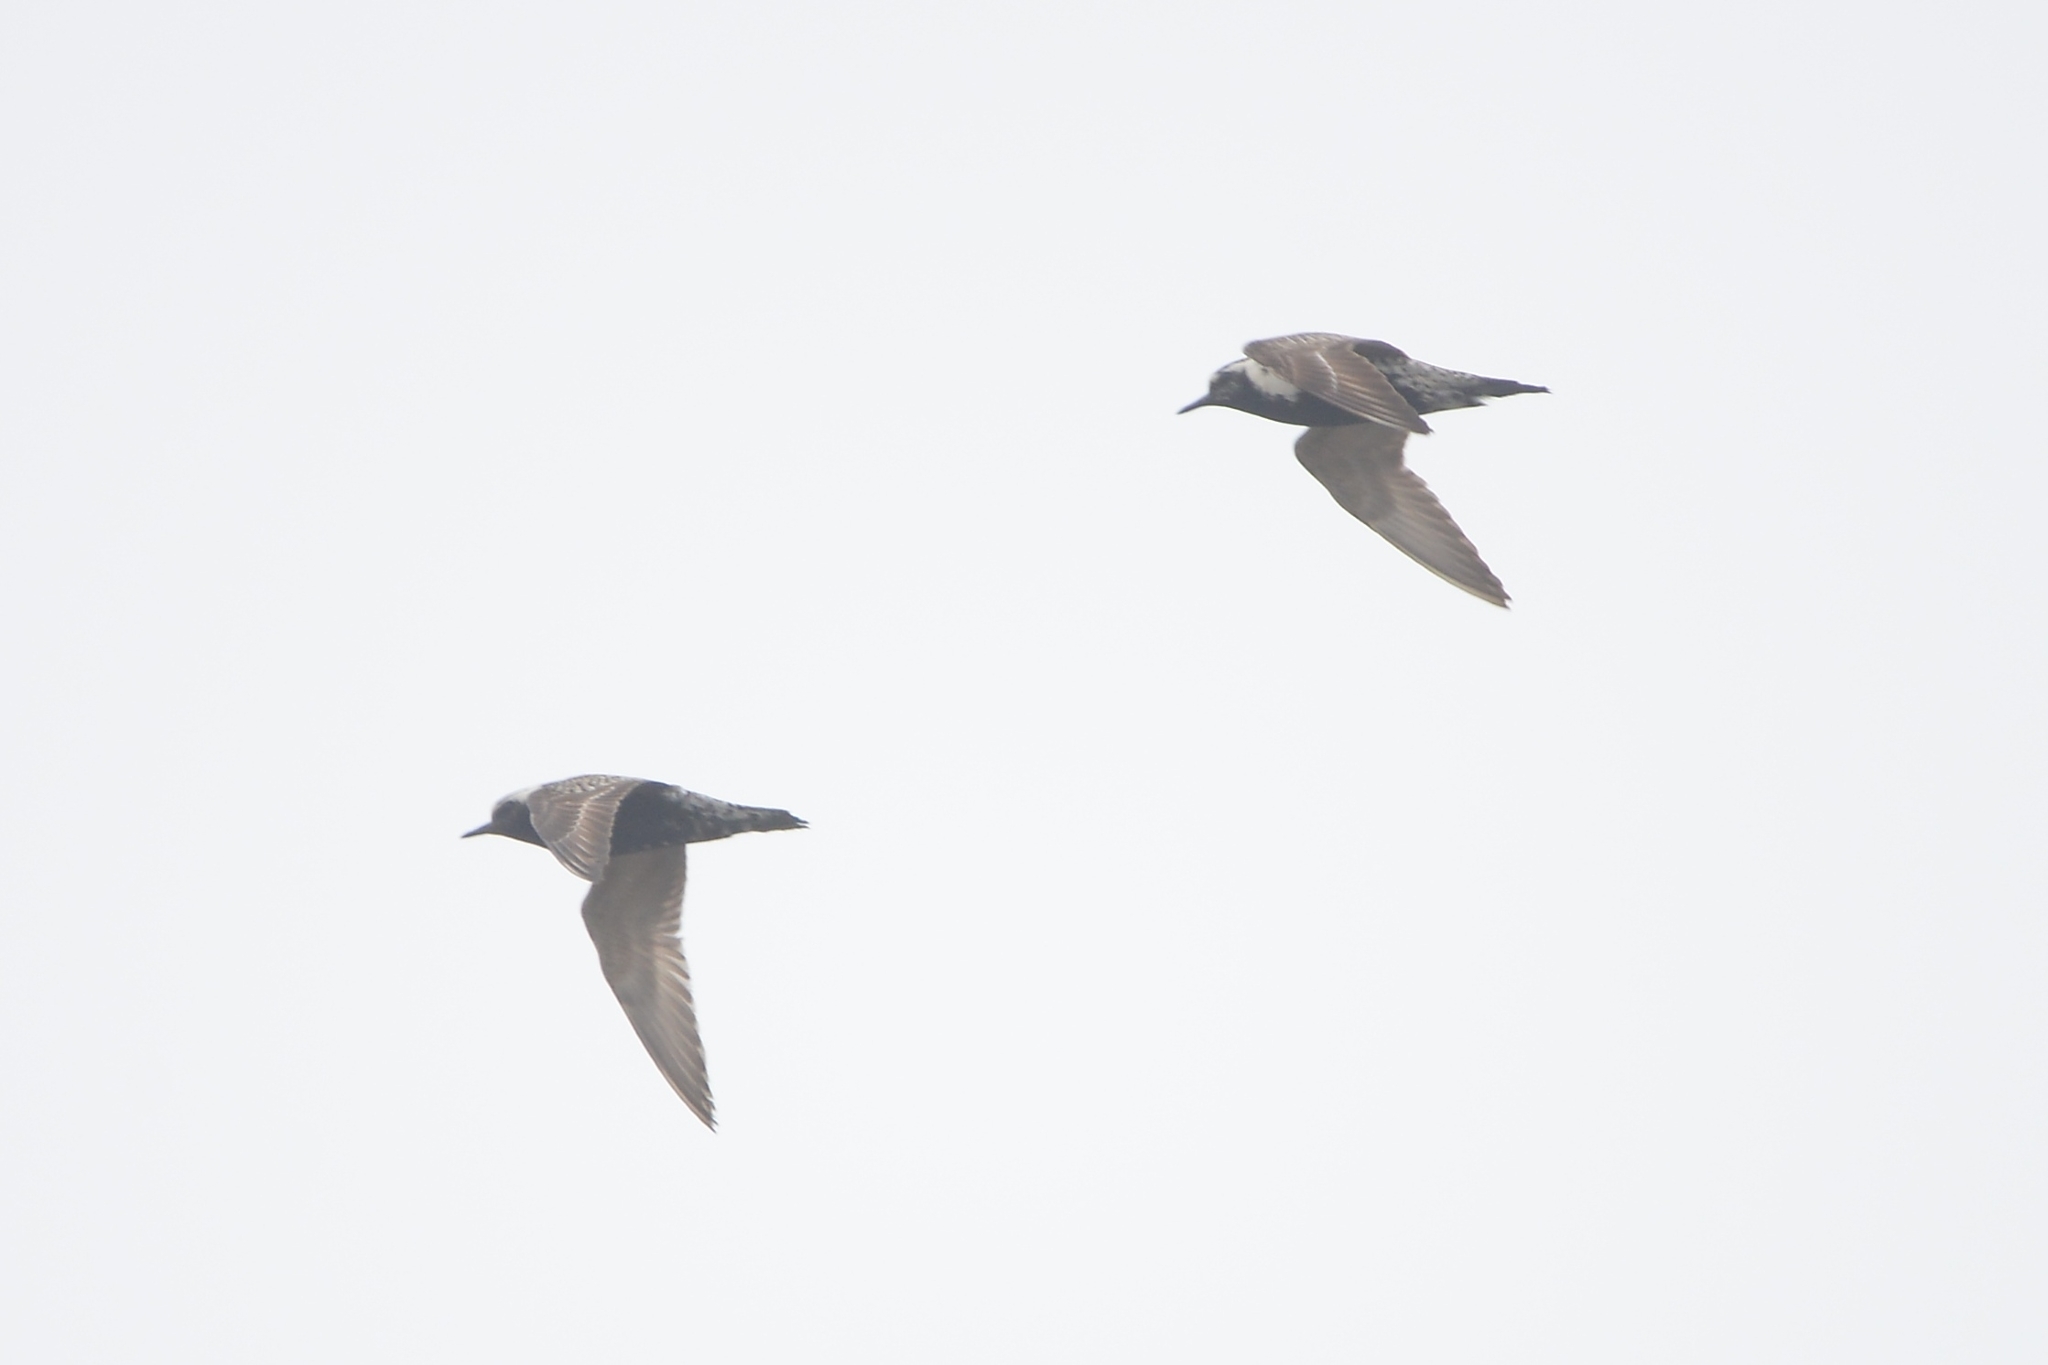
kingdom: Animalia
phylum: Chordata
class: Aves
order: Charadriiformes
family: Charadriidae
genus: Pluvialis
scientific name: Pluvialis fulva
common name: Pacific golden plover
